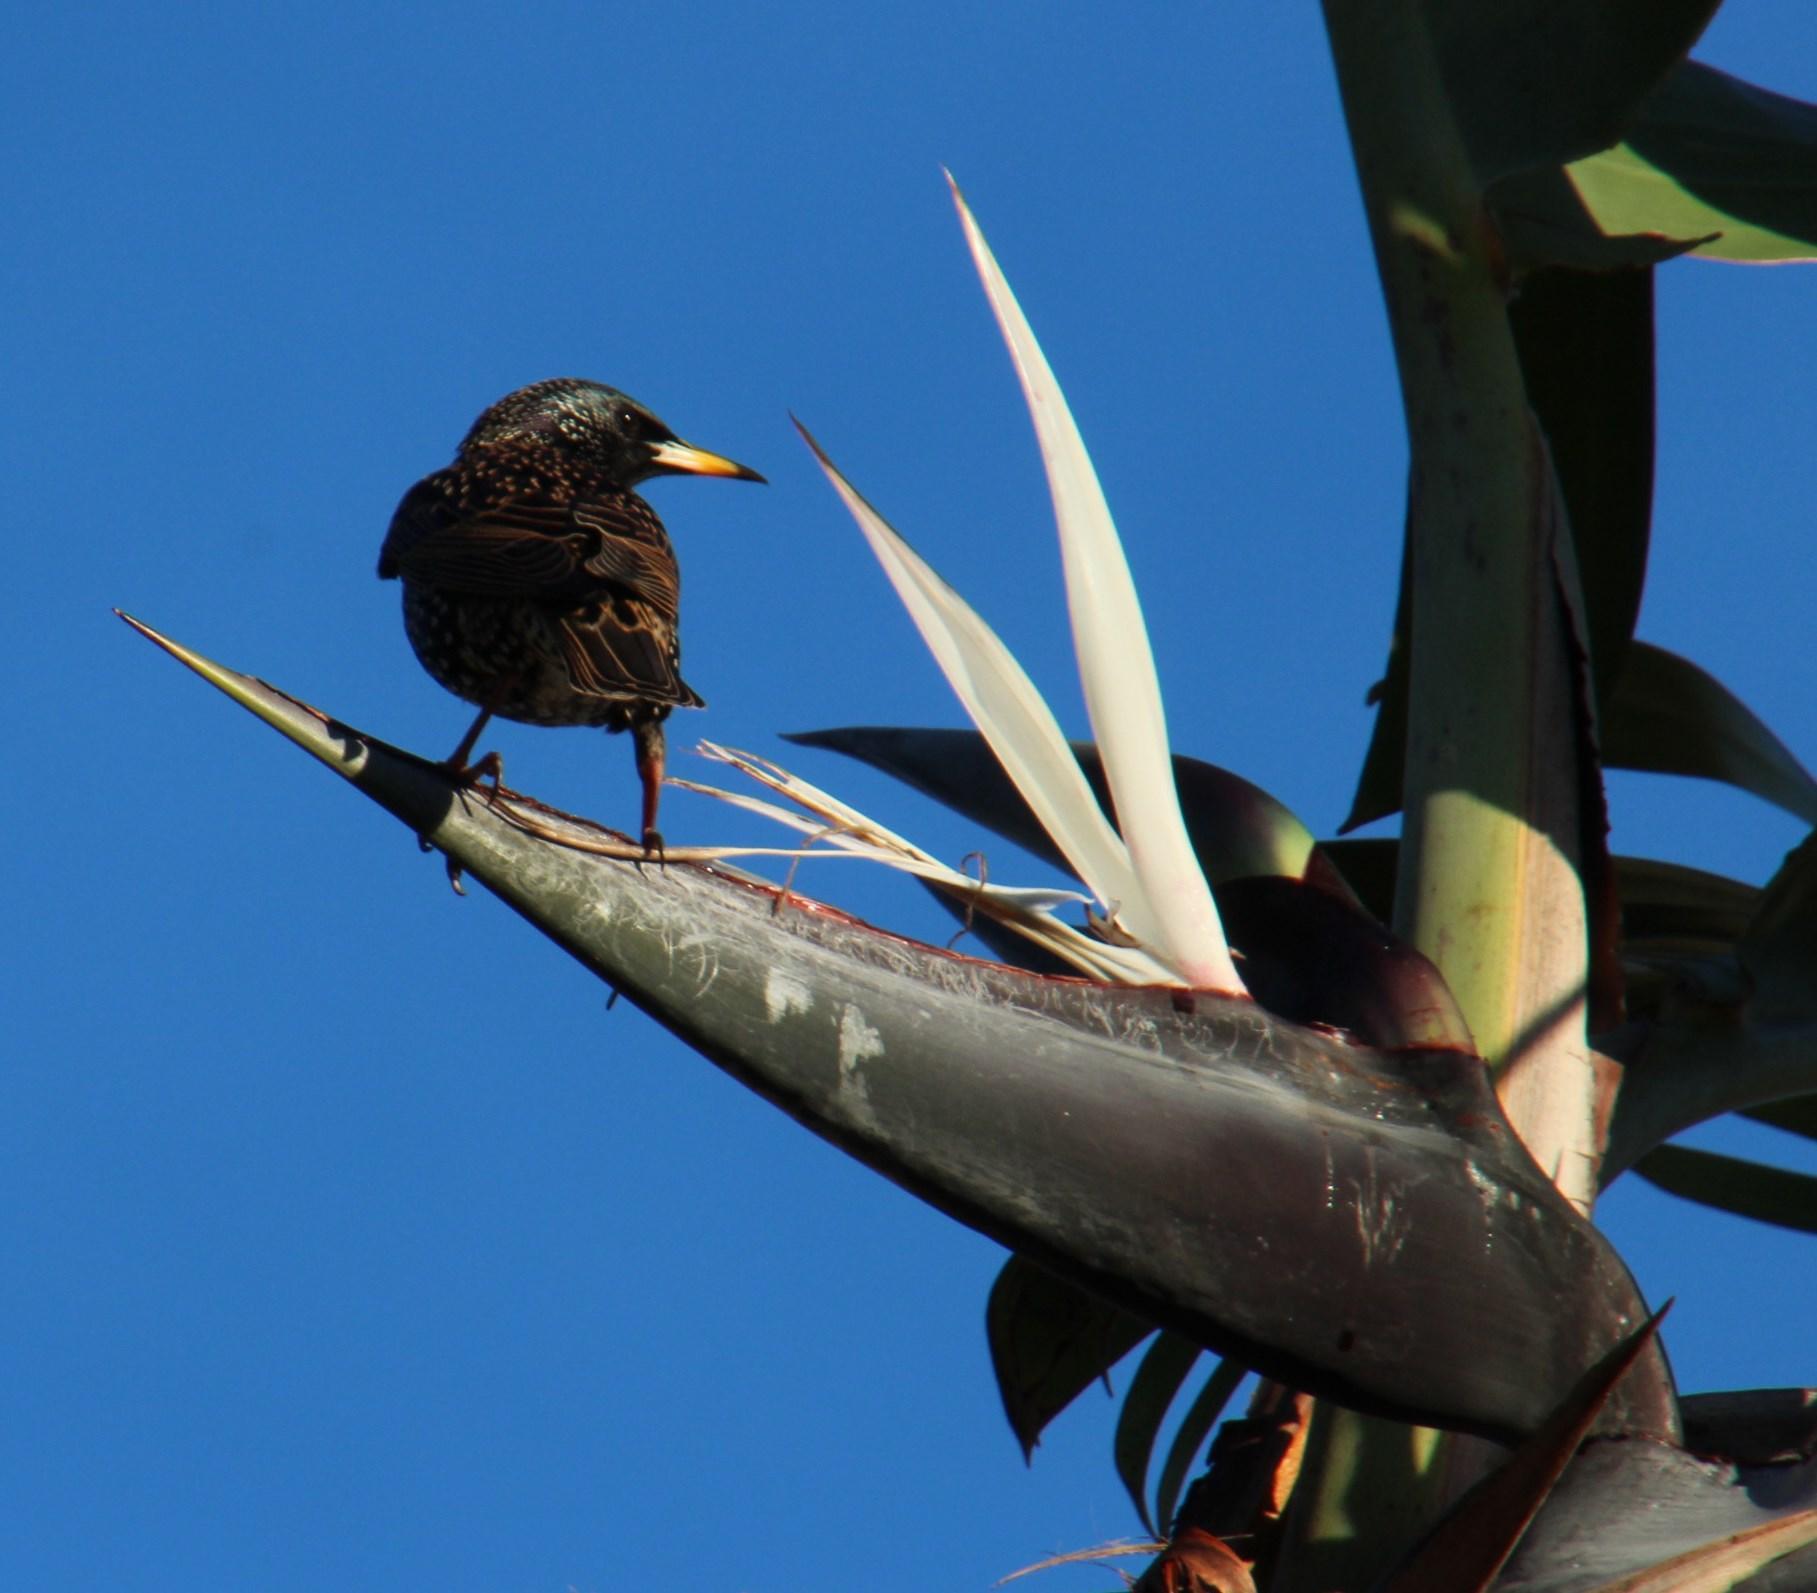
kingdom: Animalia
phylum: Chordata
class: Aves
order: Passeriformes
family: Sturnidae
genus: Sturnus
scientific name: Sturnus vulgaris
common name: Common starling
